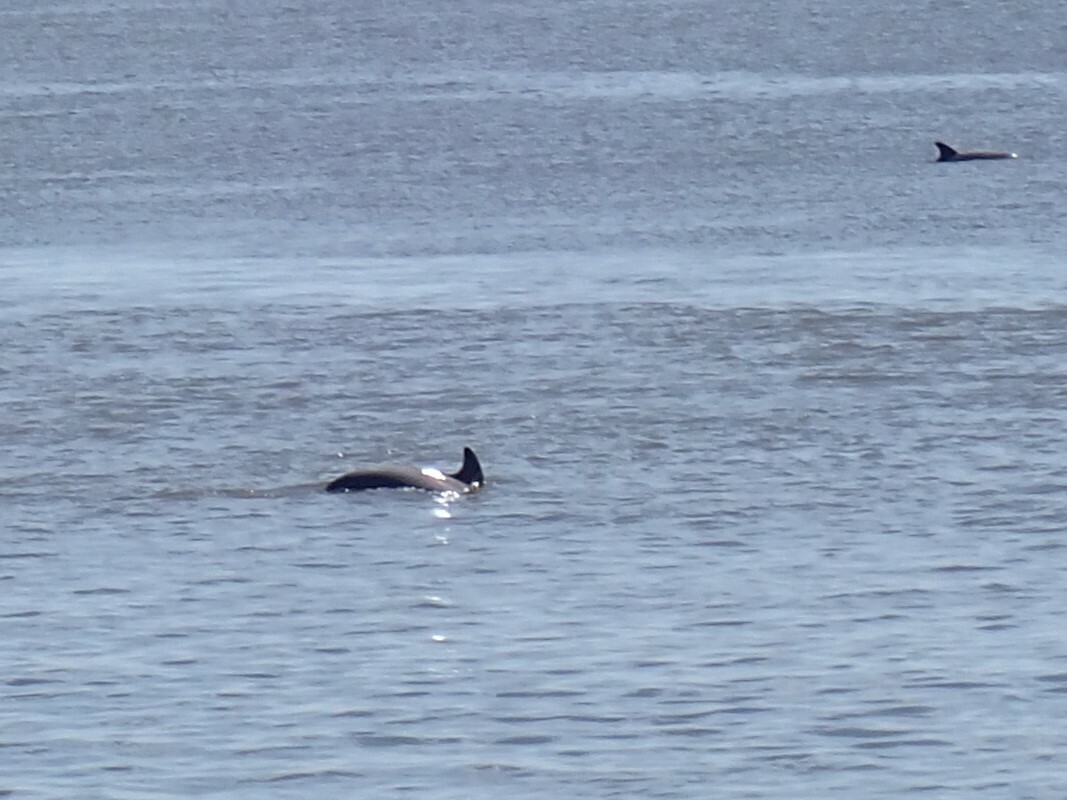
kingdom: Animalia
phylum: Chordata
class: Mammalia
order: Cetacea
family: Delphinidae
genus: Tursiops
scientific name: Tursiops truncatus
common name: Bottlenose dolphin
